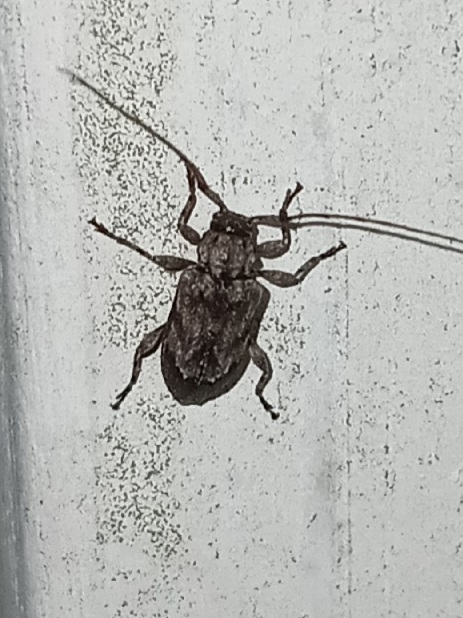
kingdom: Animalia
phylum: Arthropoda
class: Insecta
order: Coleoptera
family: Cerambycidae
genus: Astylopsis
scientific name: Astylopsis arcuata
